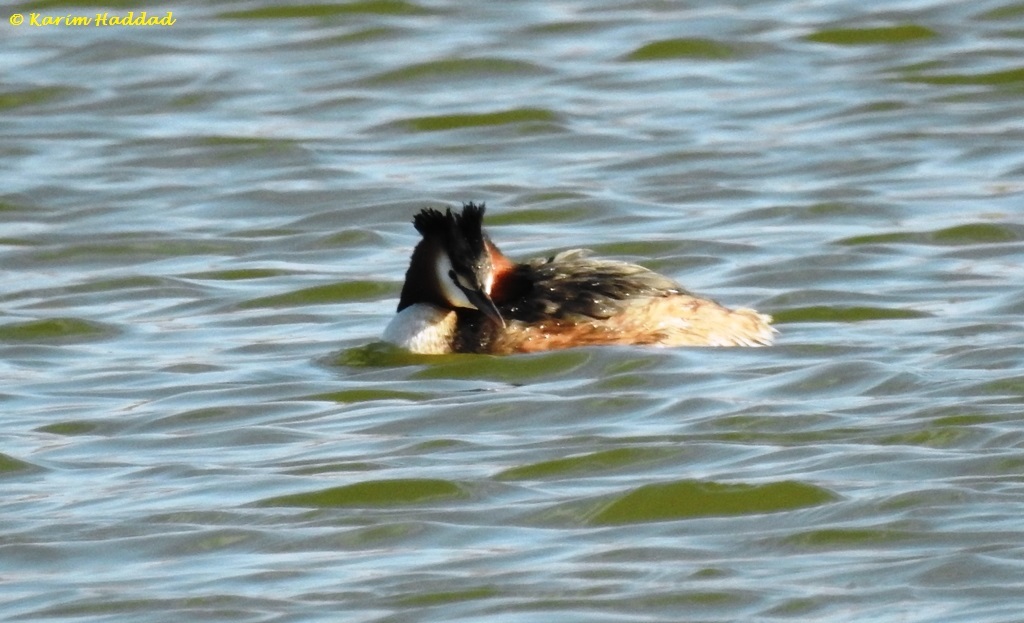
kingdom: Animalia
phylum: Chordata
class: Aves
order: Podicipediformes
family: Podicipedidae
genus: Podiceps
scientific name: Podiceps cristatus
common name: Great crested grebe
